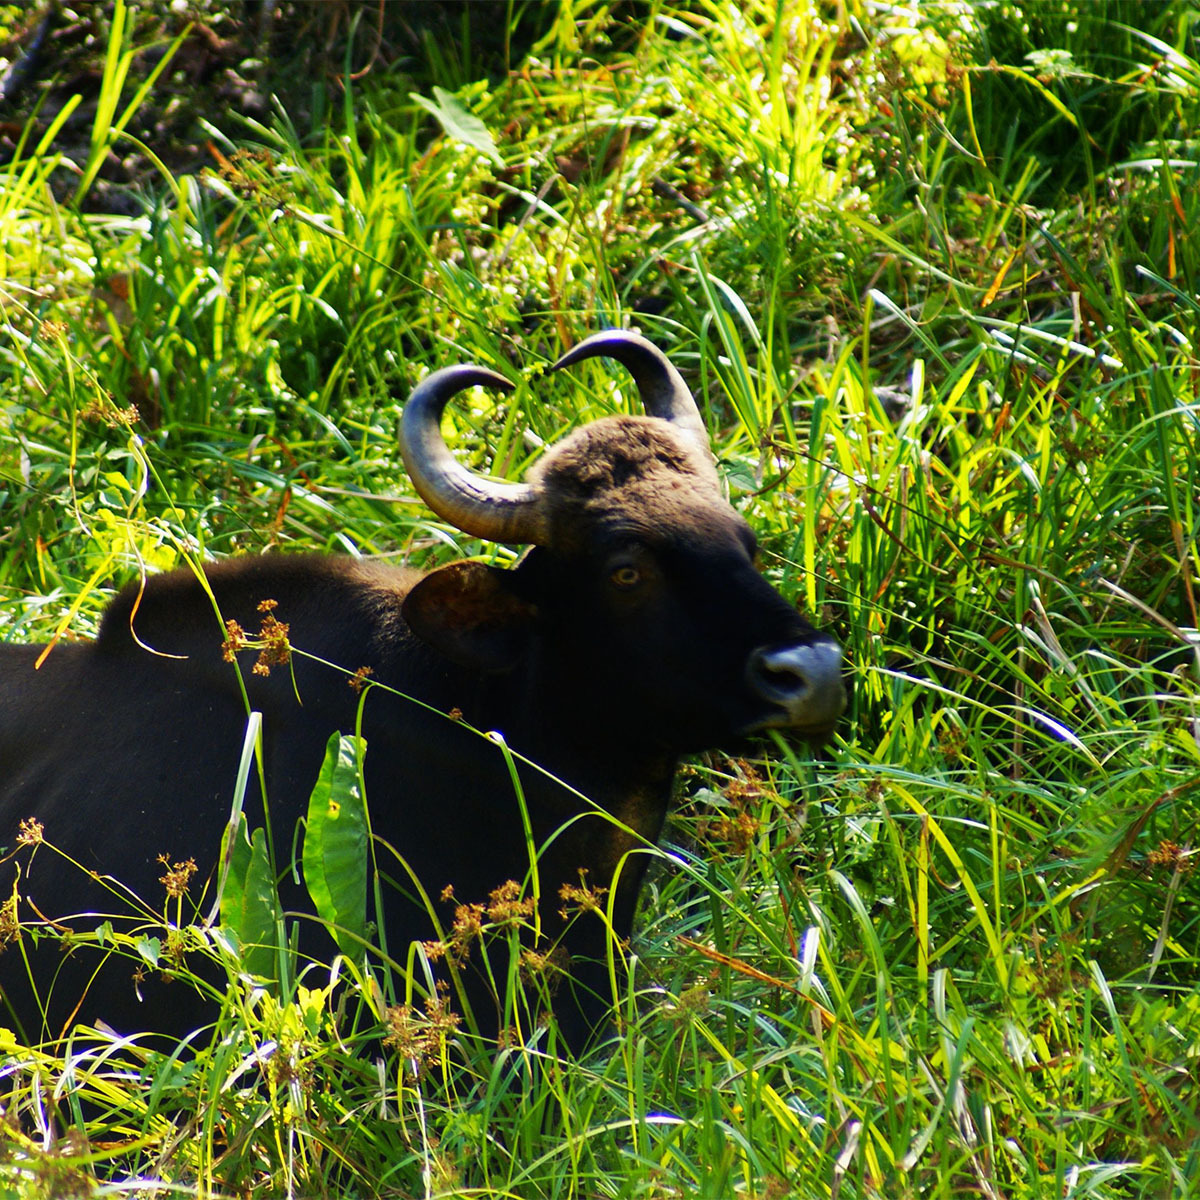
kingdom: Animalia
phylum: Chordata
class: Mammalia
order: Artiodactyla
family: Bovidae
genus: Bos
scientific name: Bos frontalis
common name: Gaur
